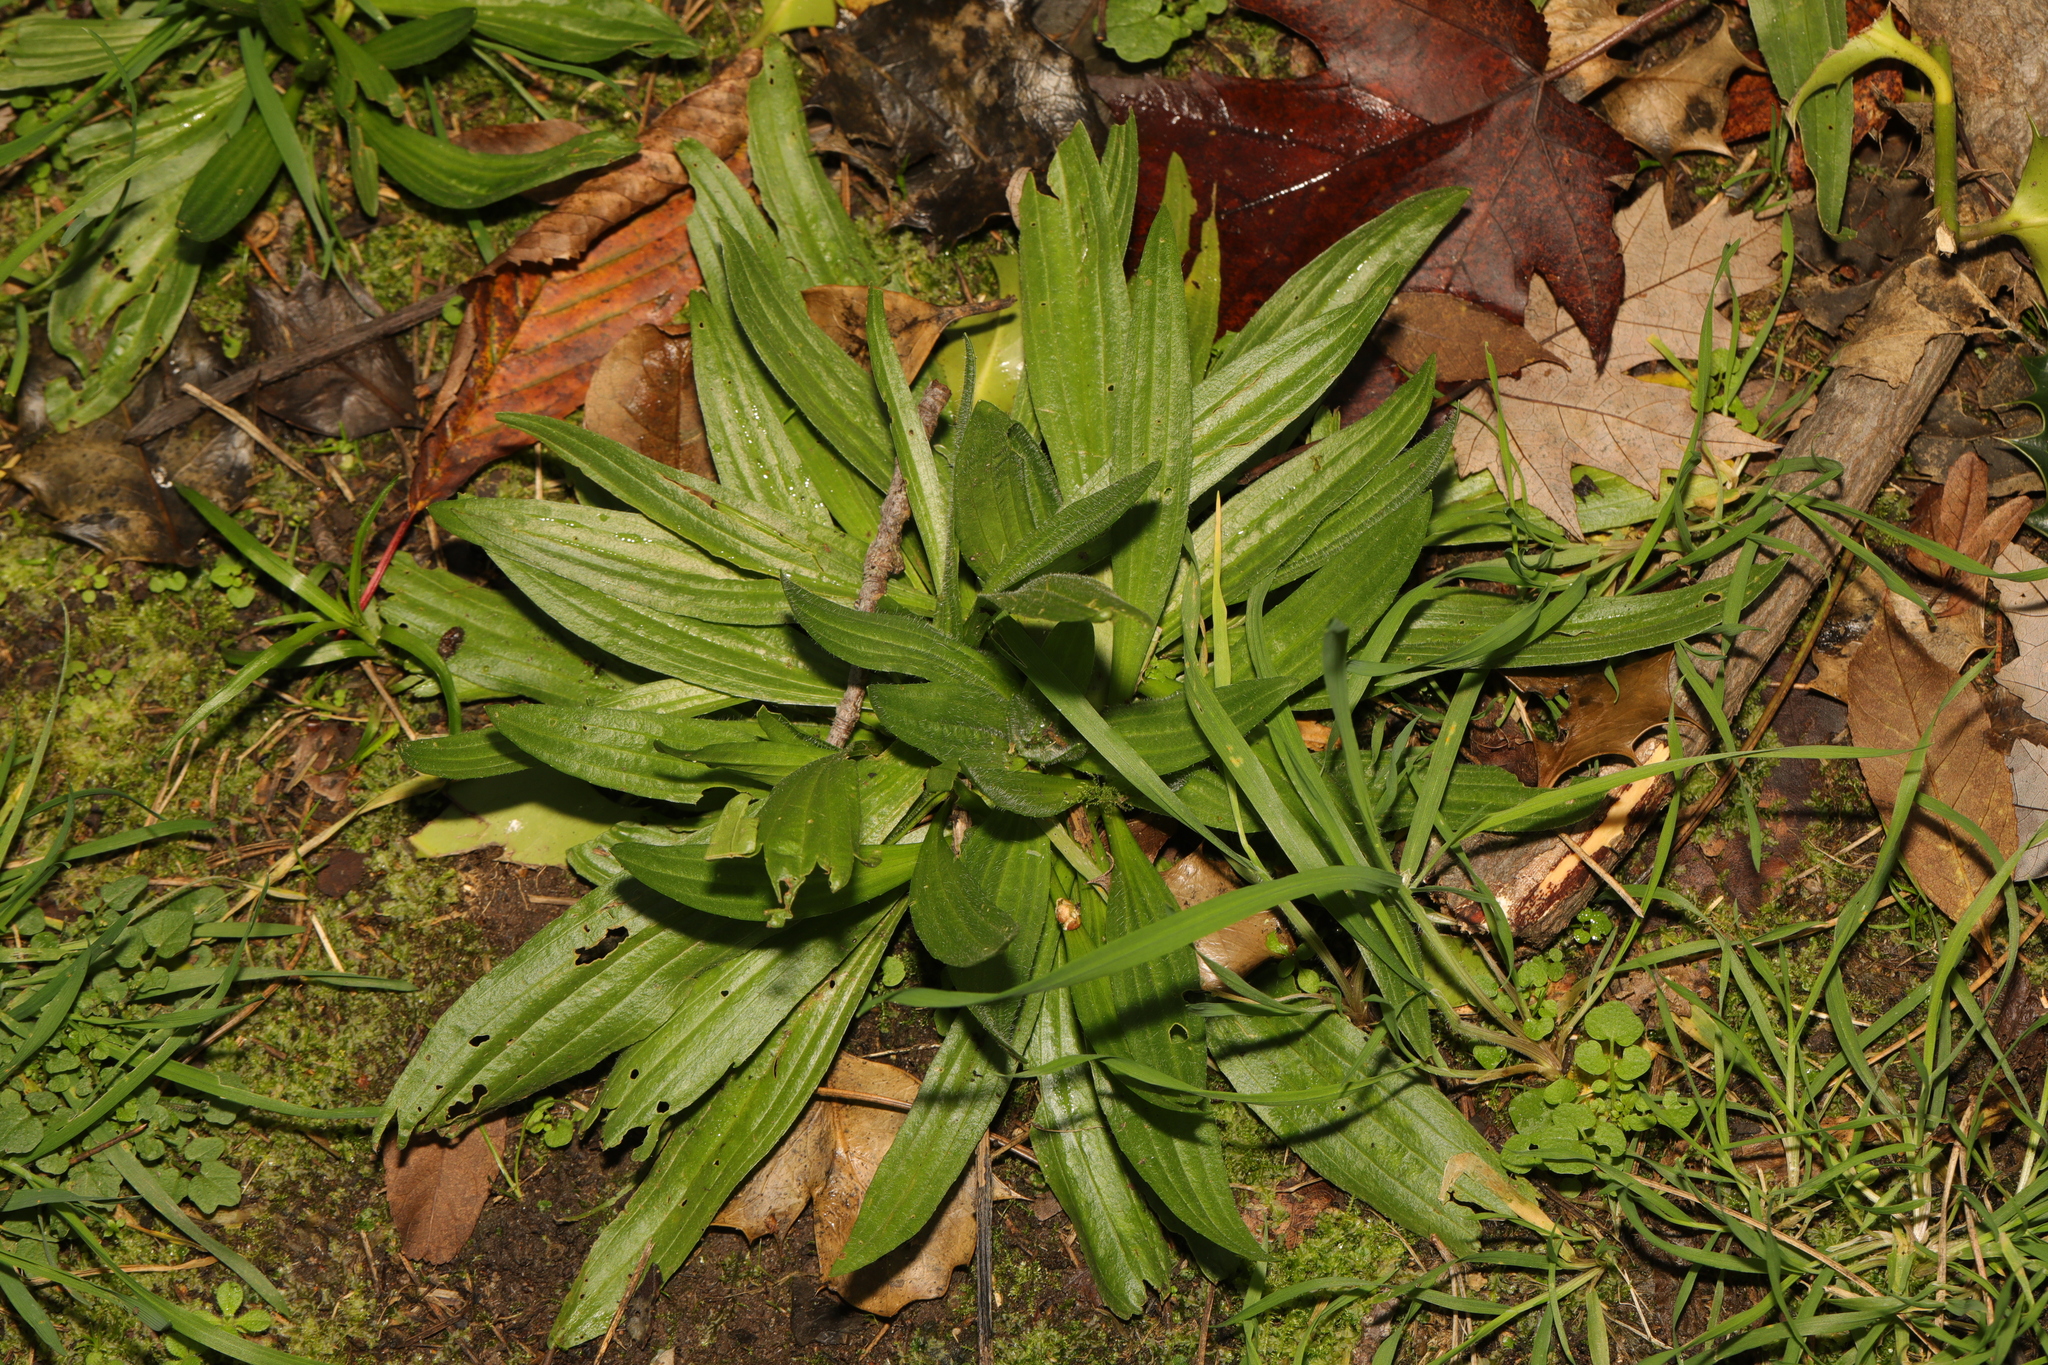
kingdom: Plantae
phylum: Tracheophyta
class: Magnoliopsida
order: Lamiales
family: Plantaginaceae
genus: Plantago
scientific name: Plantago lanceolata
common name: Ribwort plantain
